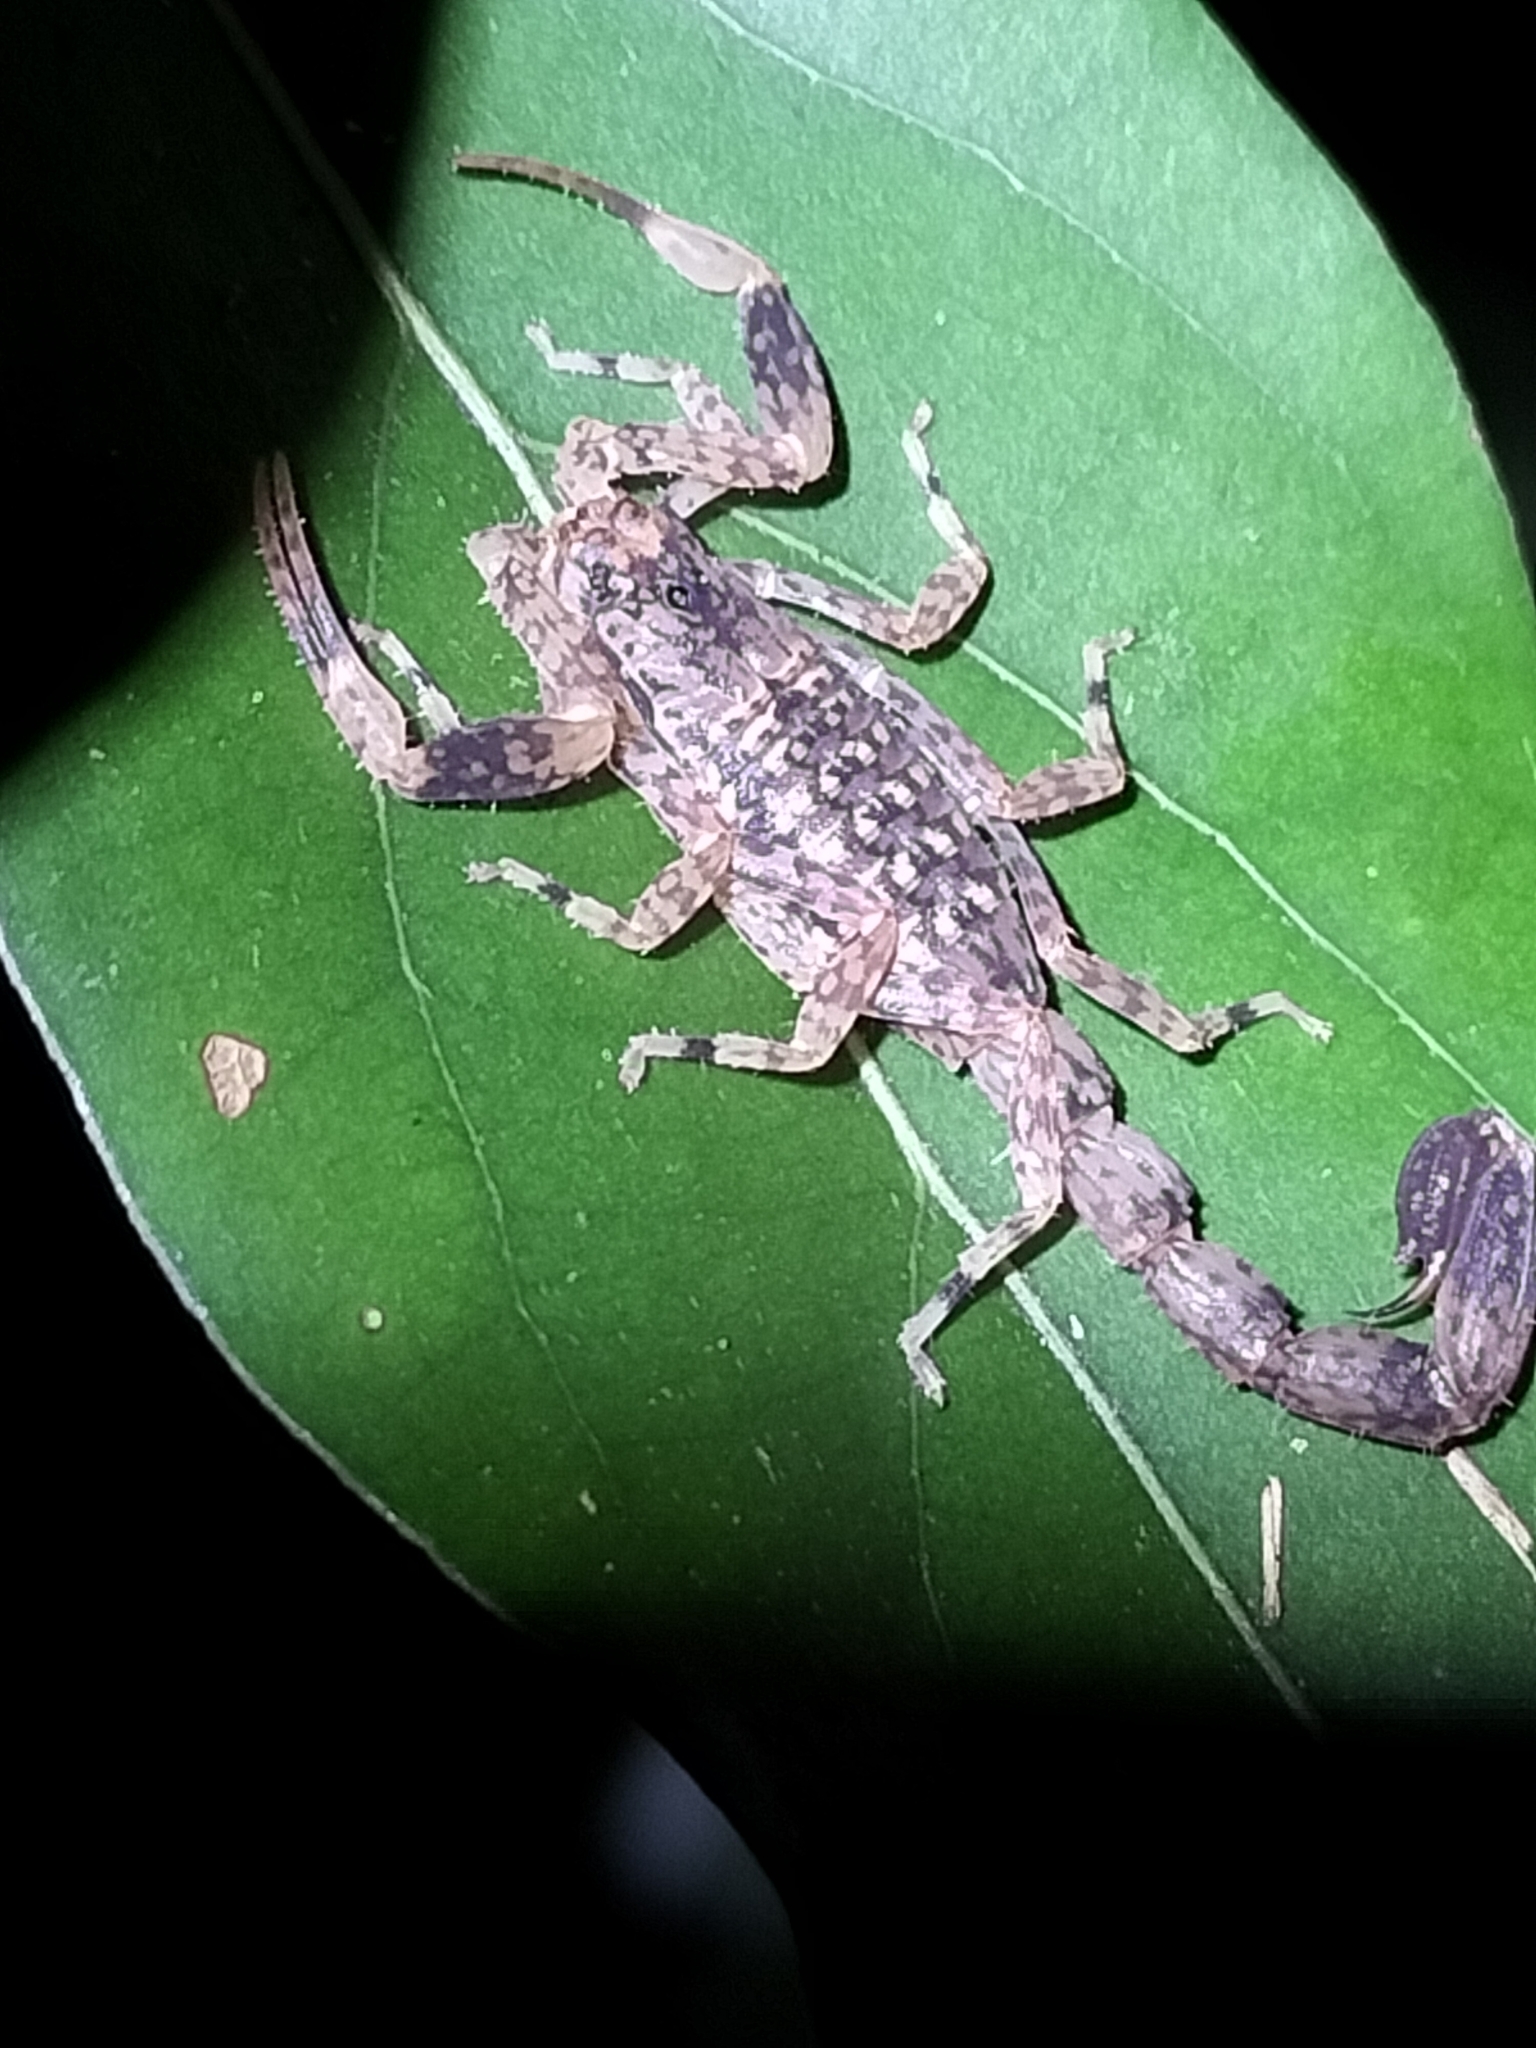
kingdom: Animalia
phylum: Arthropoda
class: Arachnida
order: Scorpiones
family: Buthidae
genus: Lychas
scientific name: Lychas variatus
